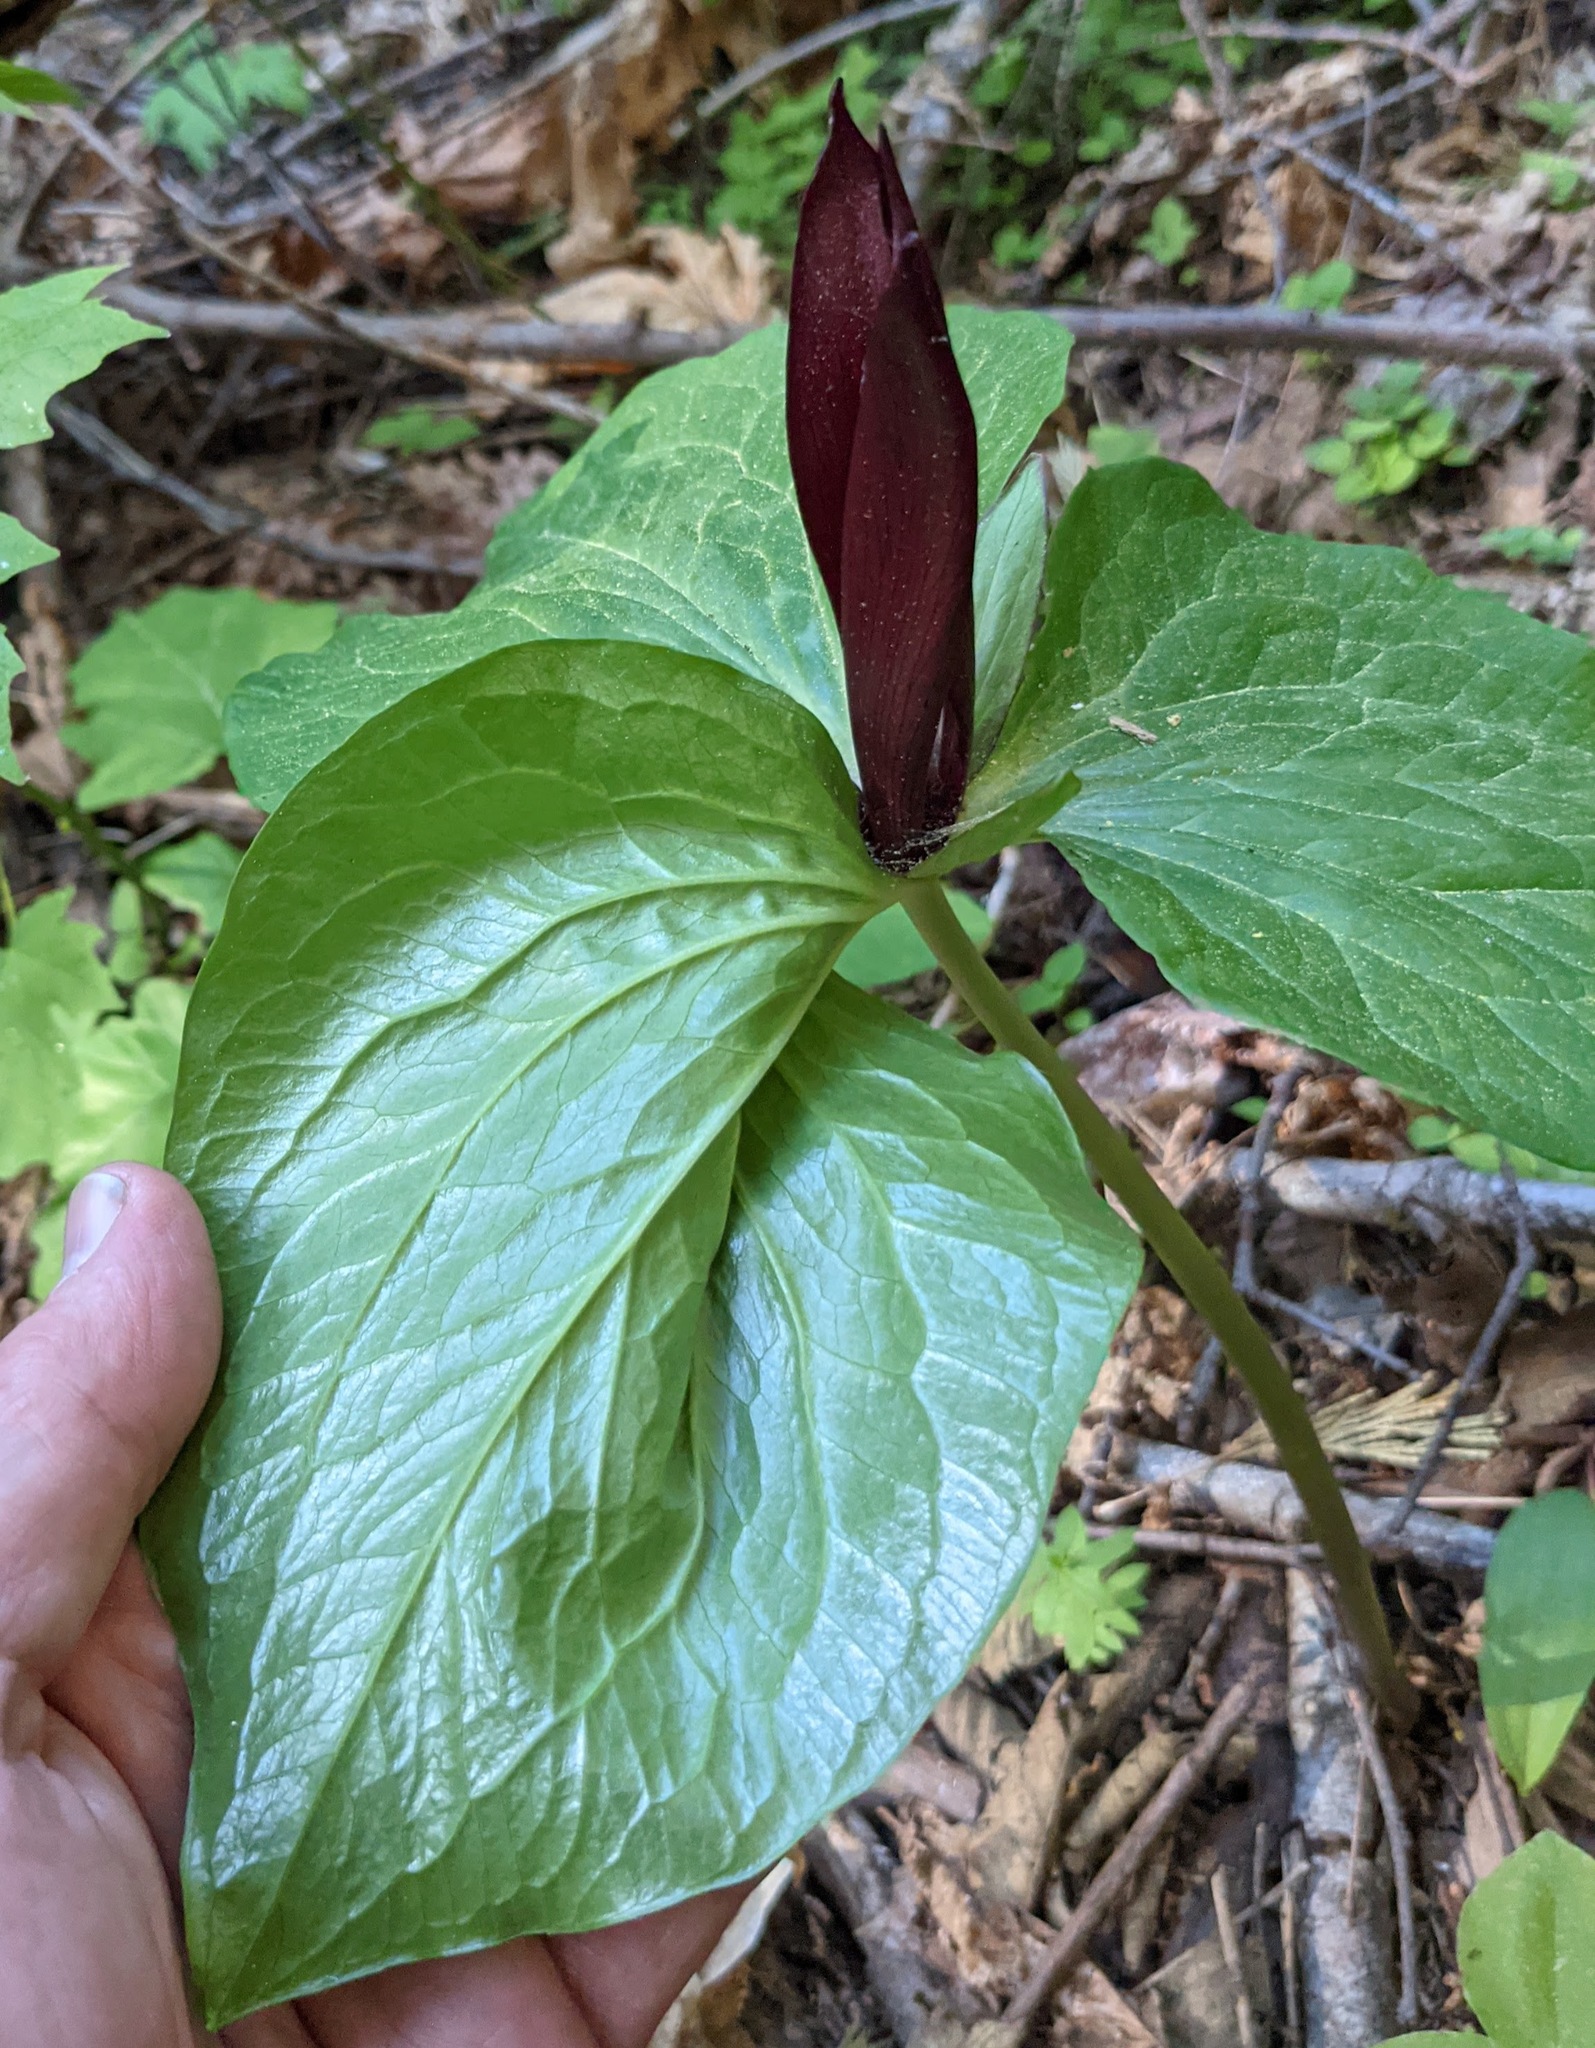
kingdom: Plantae
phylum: Tracheophyta
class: Liliopsida
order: Liliales
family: Melanthiaceae
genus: Trillium
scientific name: Trillium angustipetalum
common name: Narrow-petaled trillium
